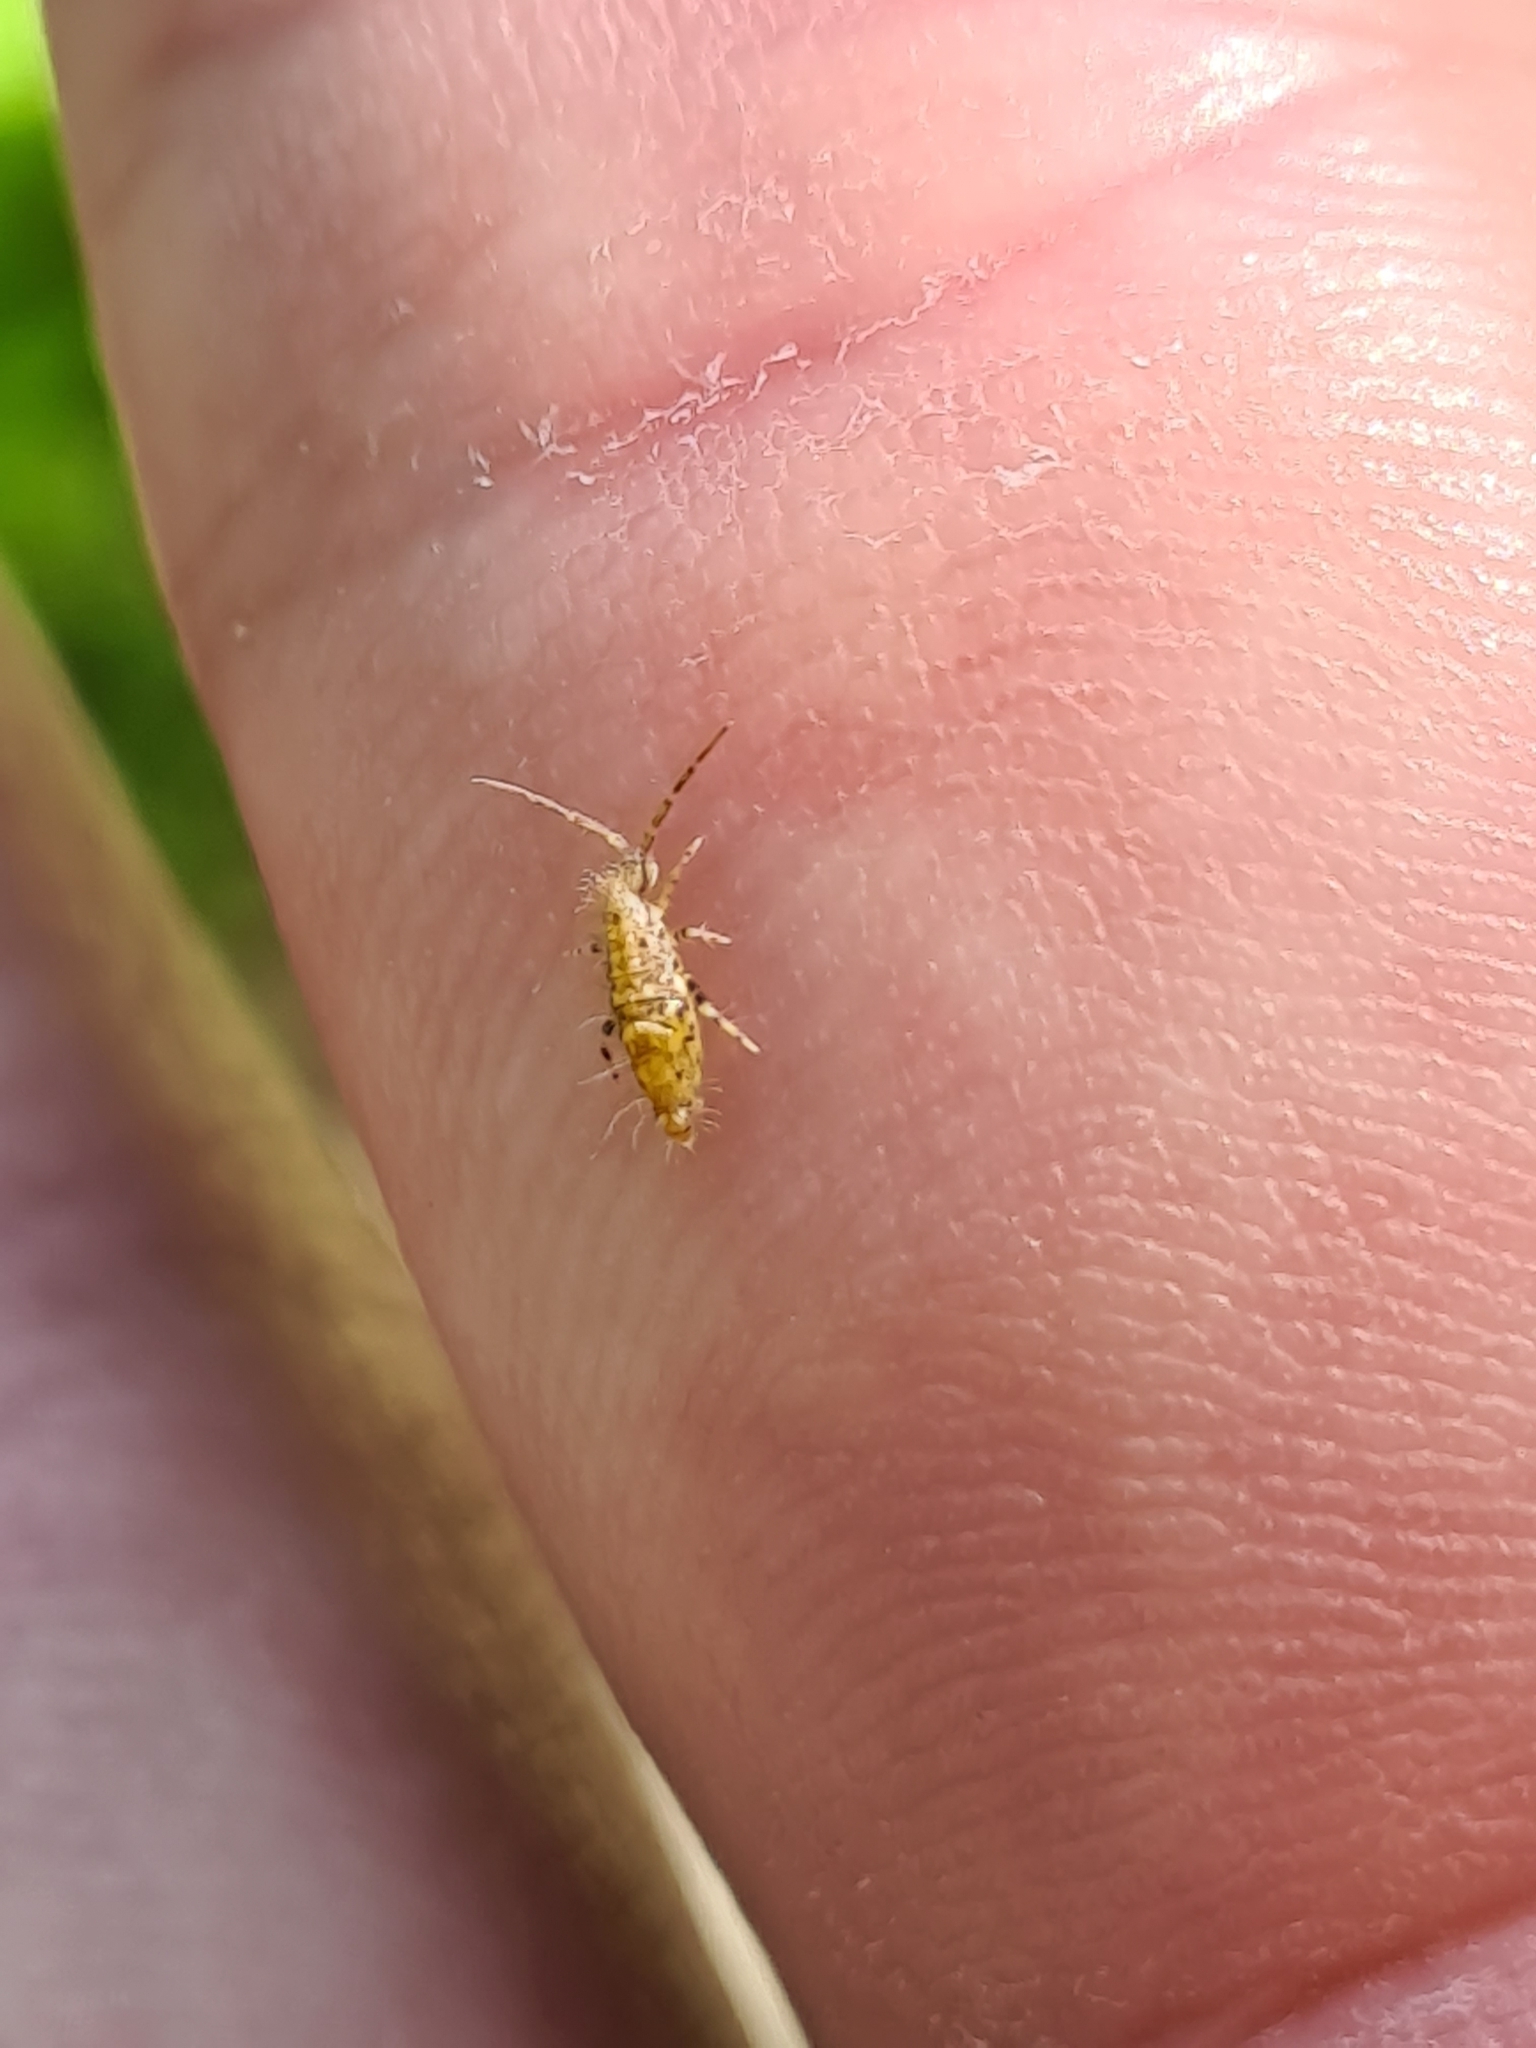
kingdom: Animalia
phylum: Arthropoda
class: Collembola
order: Entomobryomorpha
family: Entomobryidae
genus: Entomobrya
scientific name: Entomobrya dorsalis
